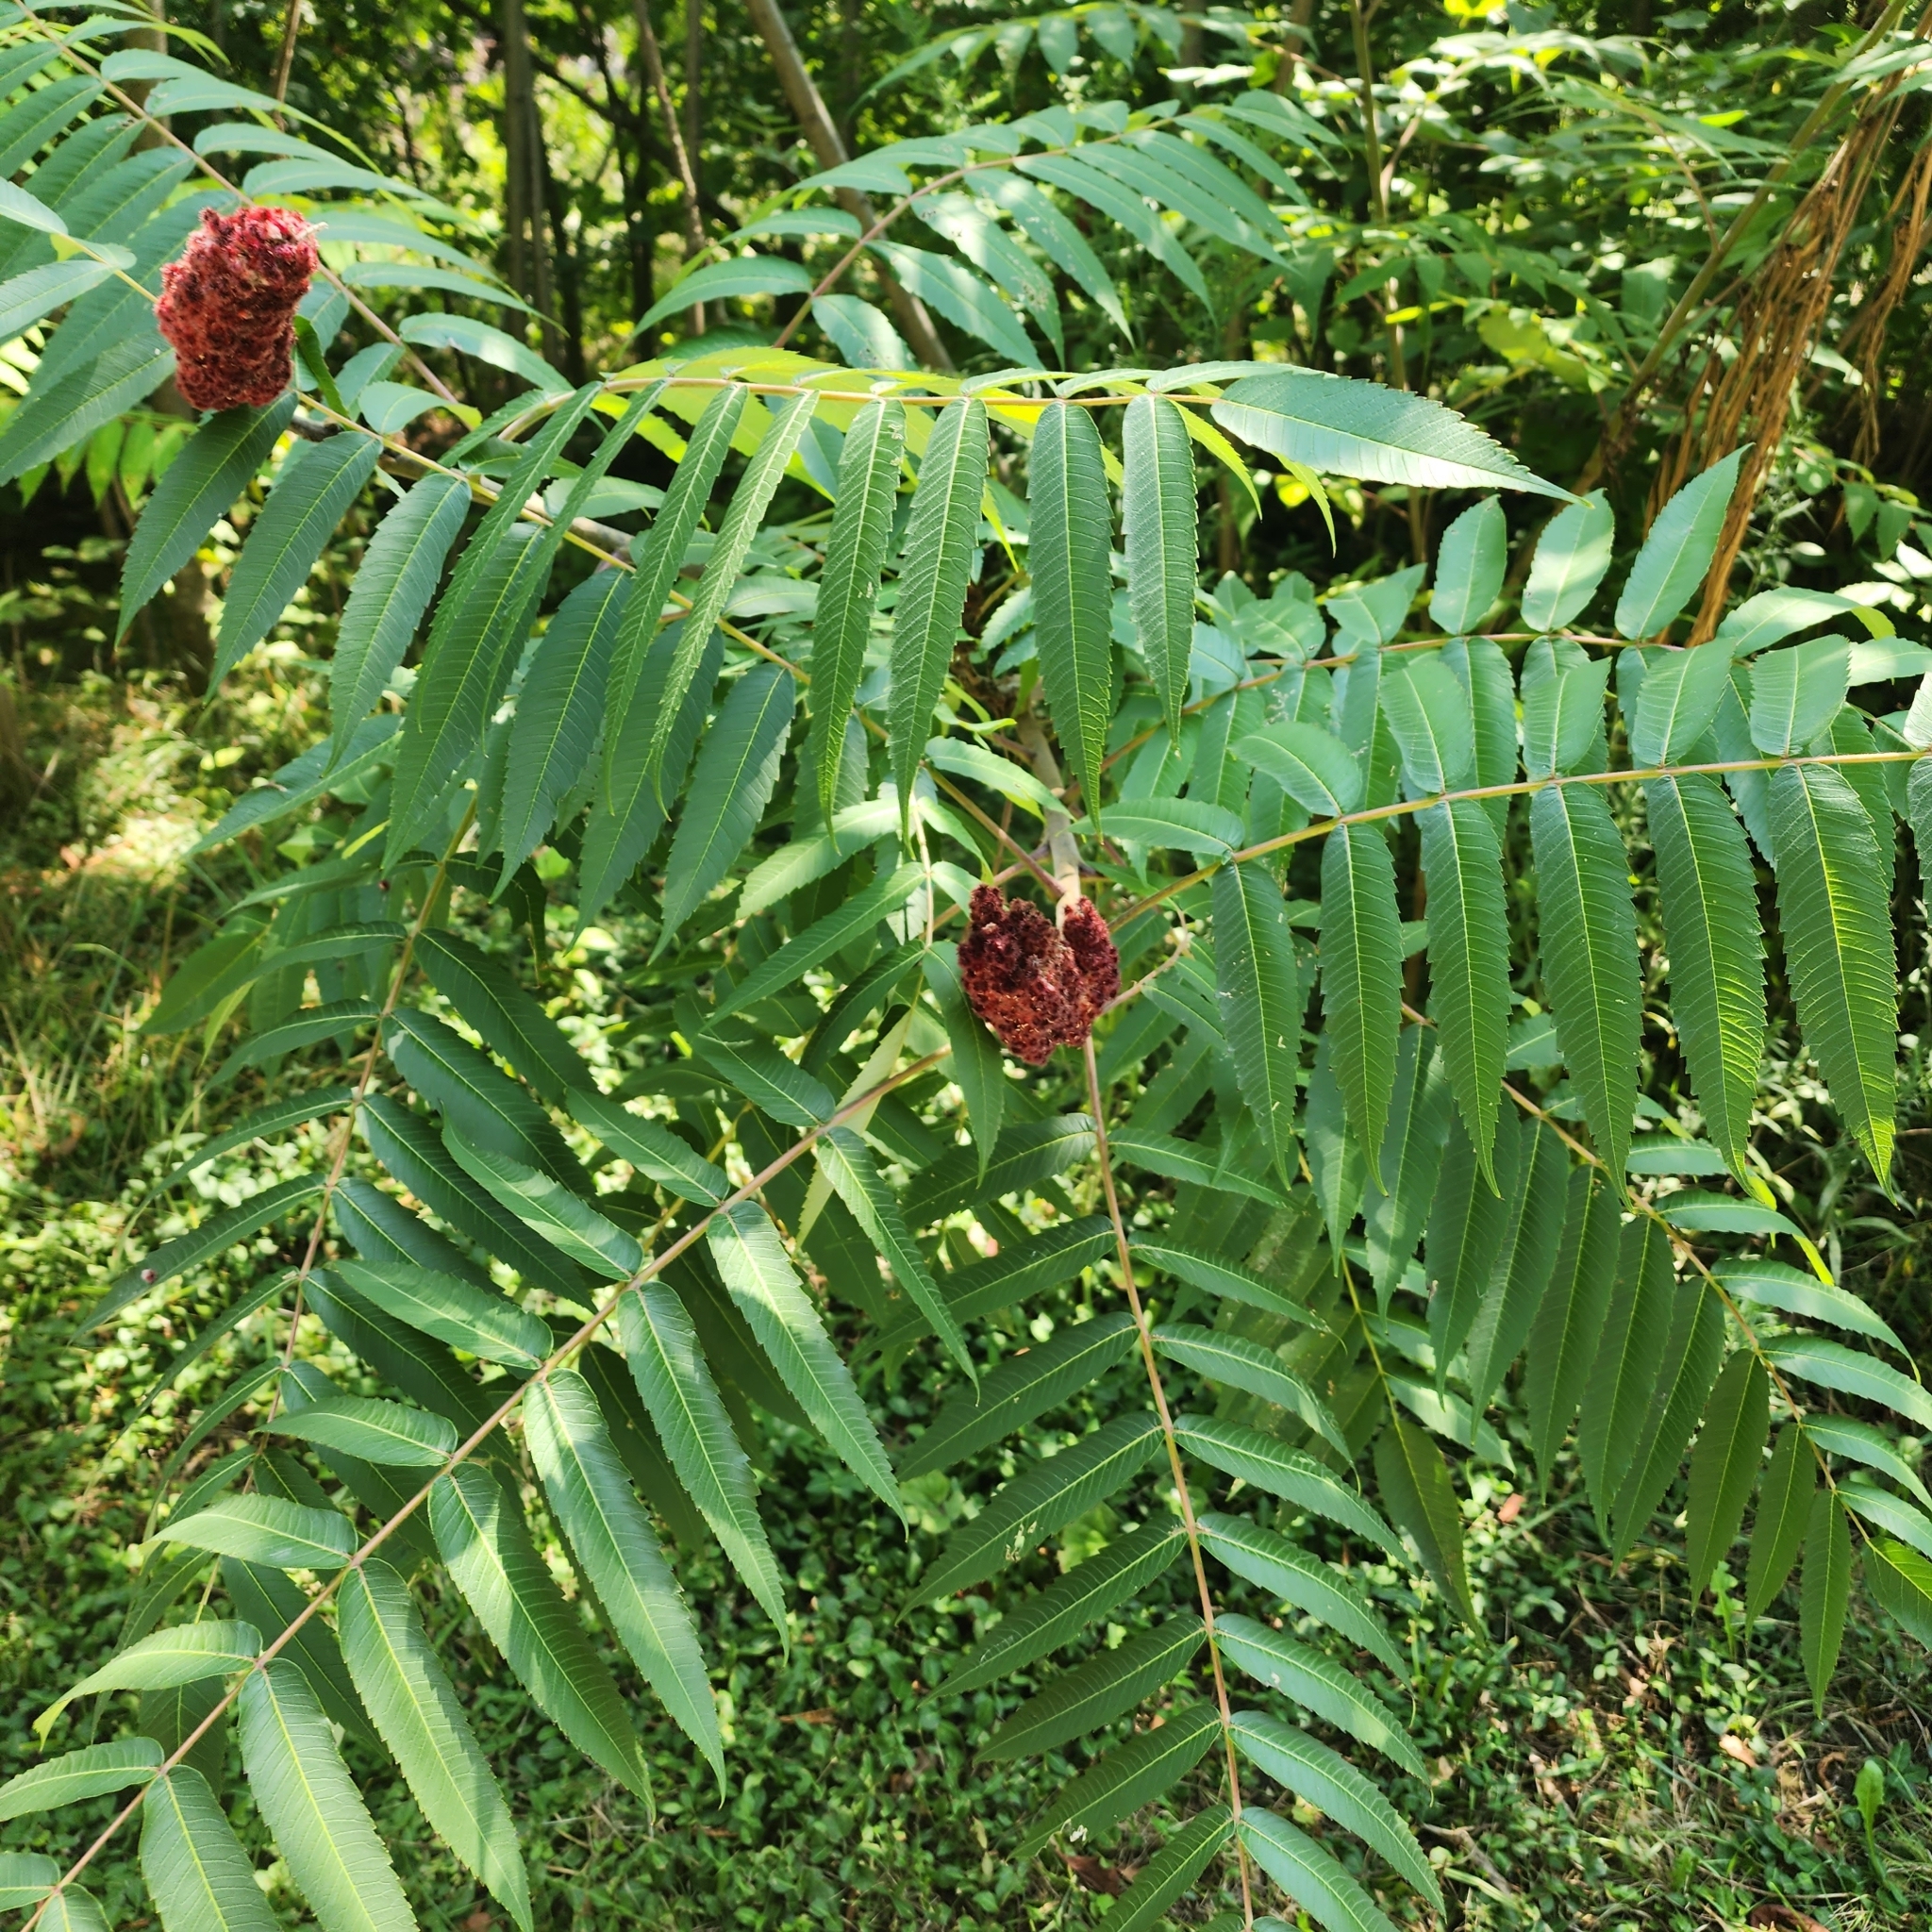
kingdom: Plantae
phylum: Tracheophyta
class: Magnoliopsida
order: Sapindales
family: Anacardiaceae
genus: Rhus
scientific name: Rhus typhina
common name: Staghorn sumac
